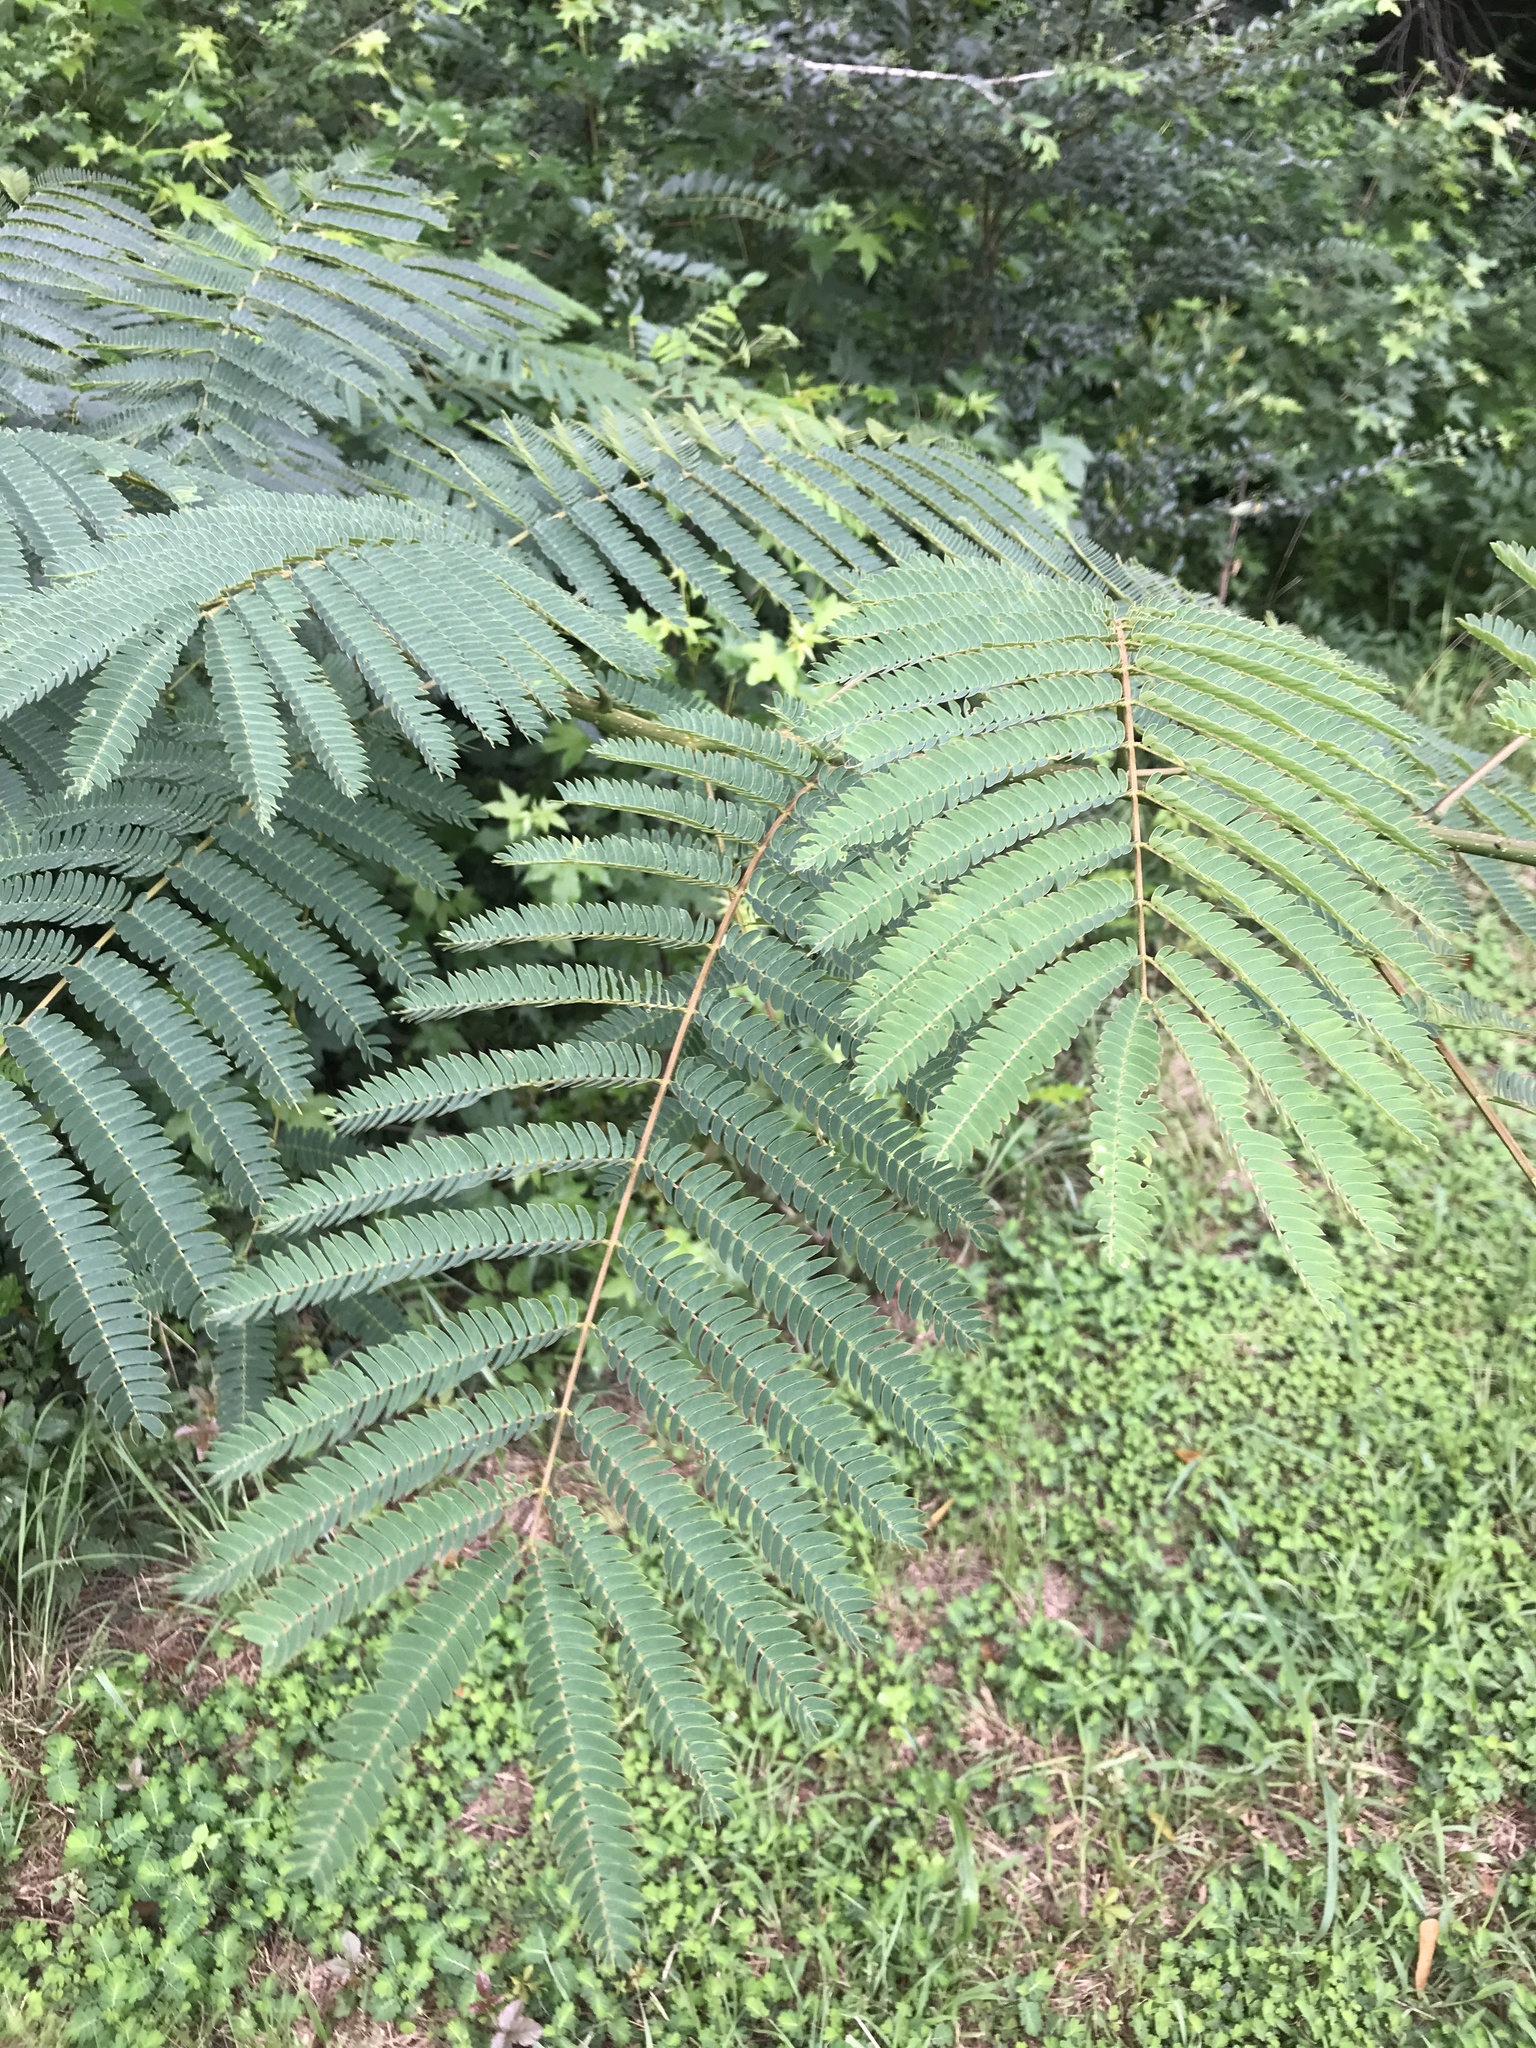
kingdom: Plantae
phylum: Tracheophyta
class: Magnoliopsida
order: Fabales
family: Fabaceae
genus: Albizia
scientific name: Albizia julibrissin
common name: Silktree
